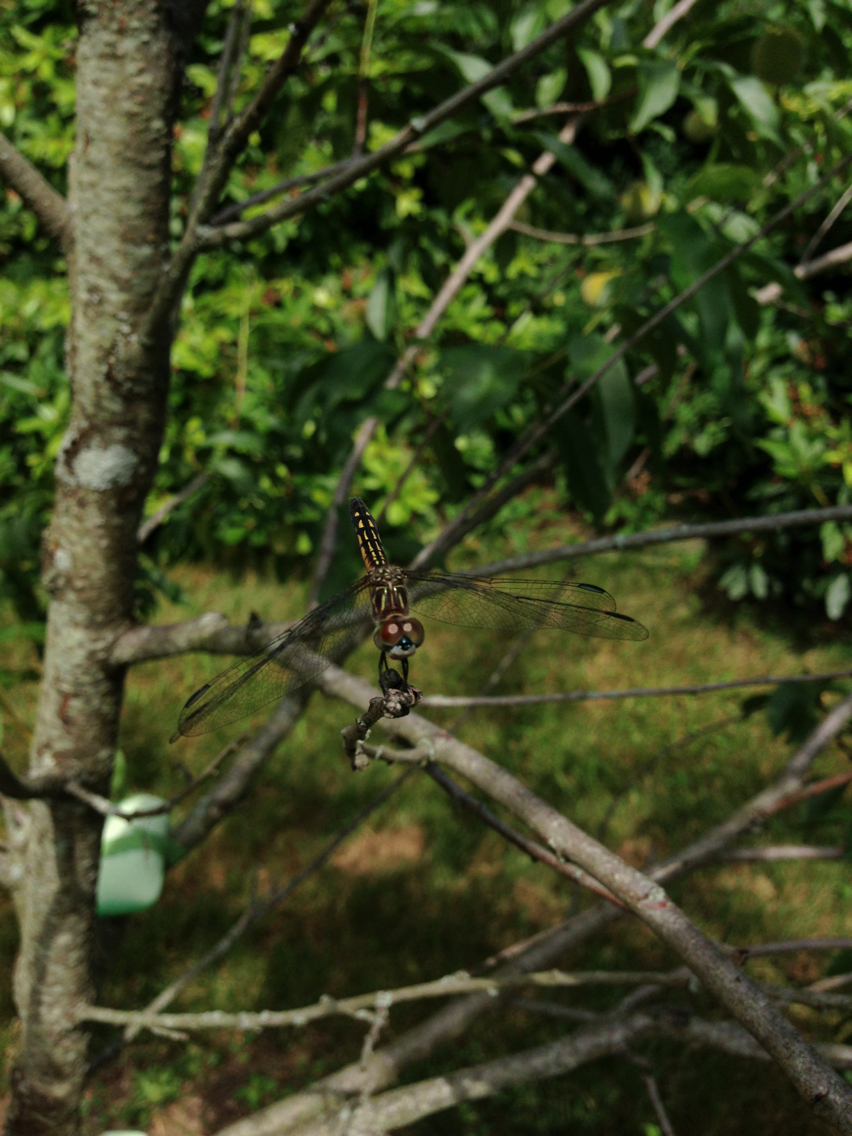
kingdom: Animalia
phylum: Arthropoda
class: Insecta
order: Odonata
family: Libellulidae
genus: Pachydiplax
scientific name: Pachydiplax longipennis
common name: Blue dasher
